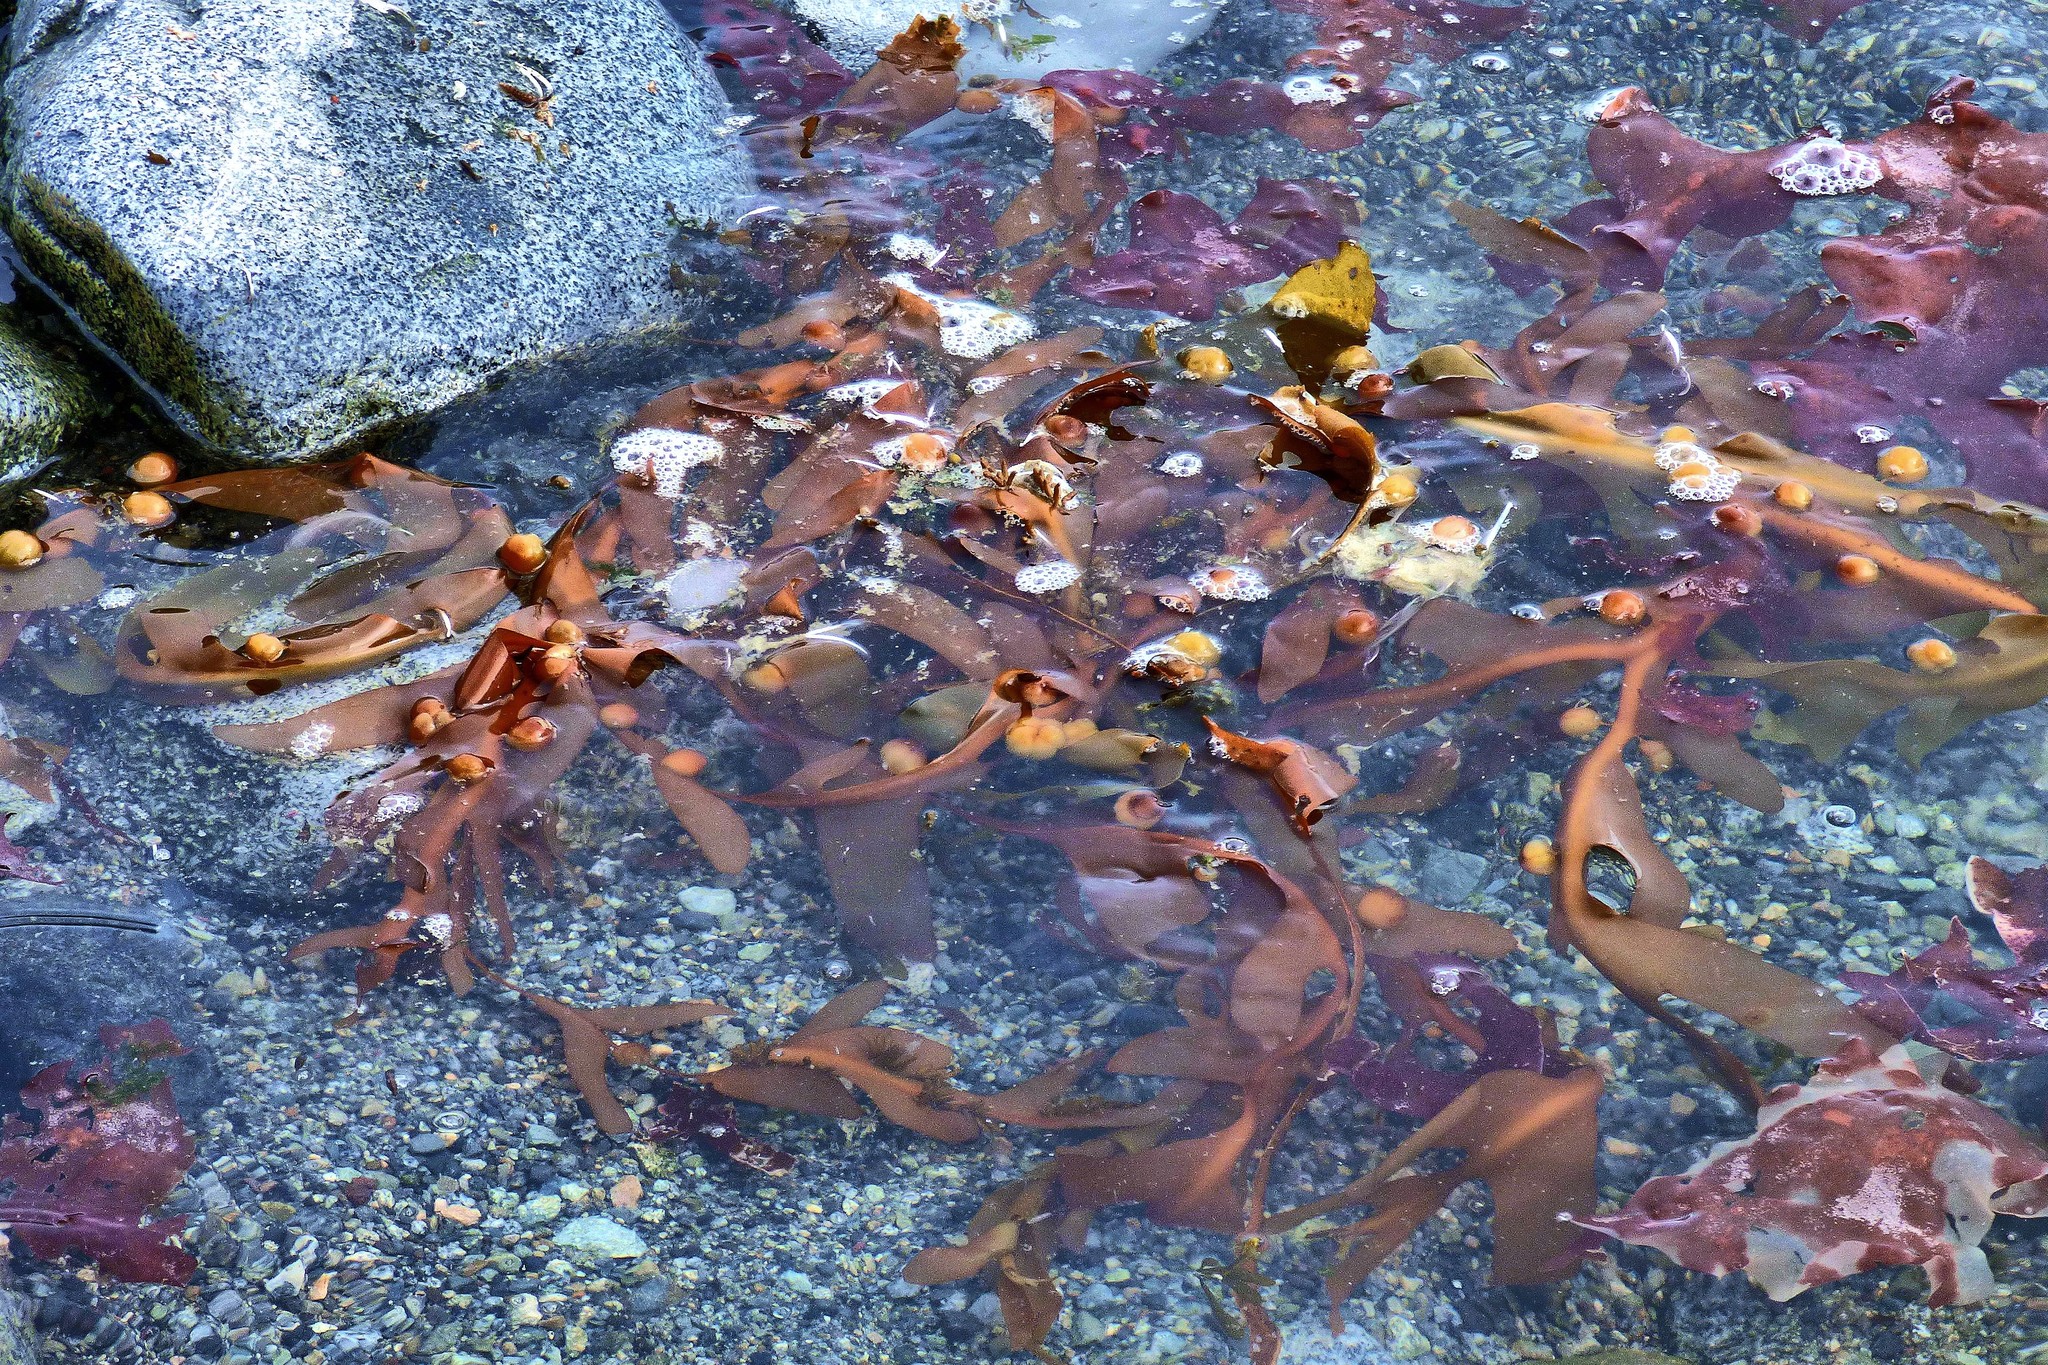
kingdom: Chromista
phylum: Ochrophyta
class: Phaeophyceae
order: Fucales
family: Seirococcaceae
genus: Cystosphaera
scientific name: Cystosphaera
